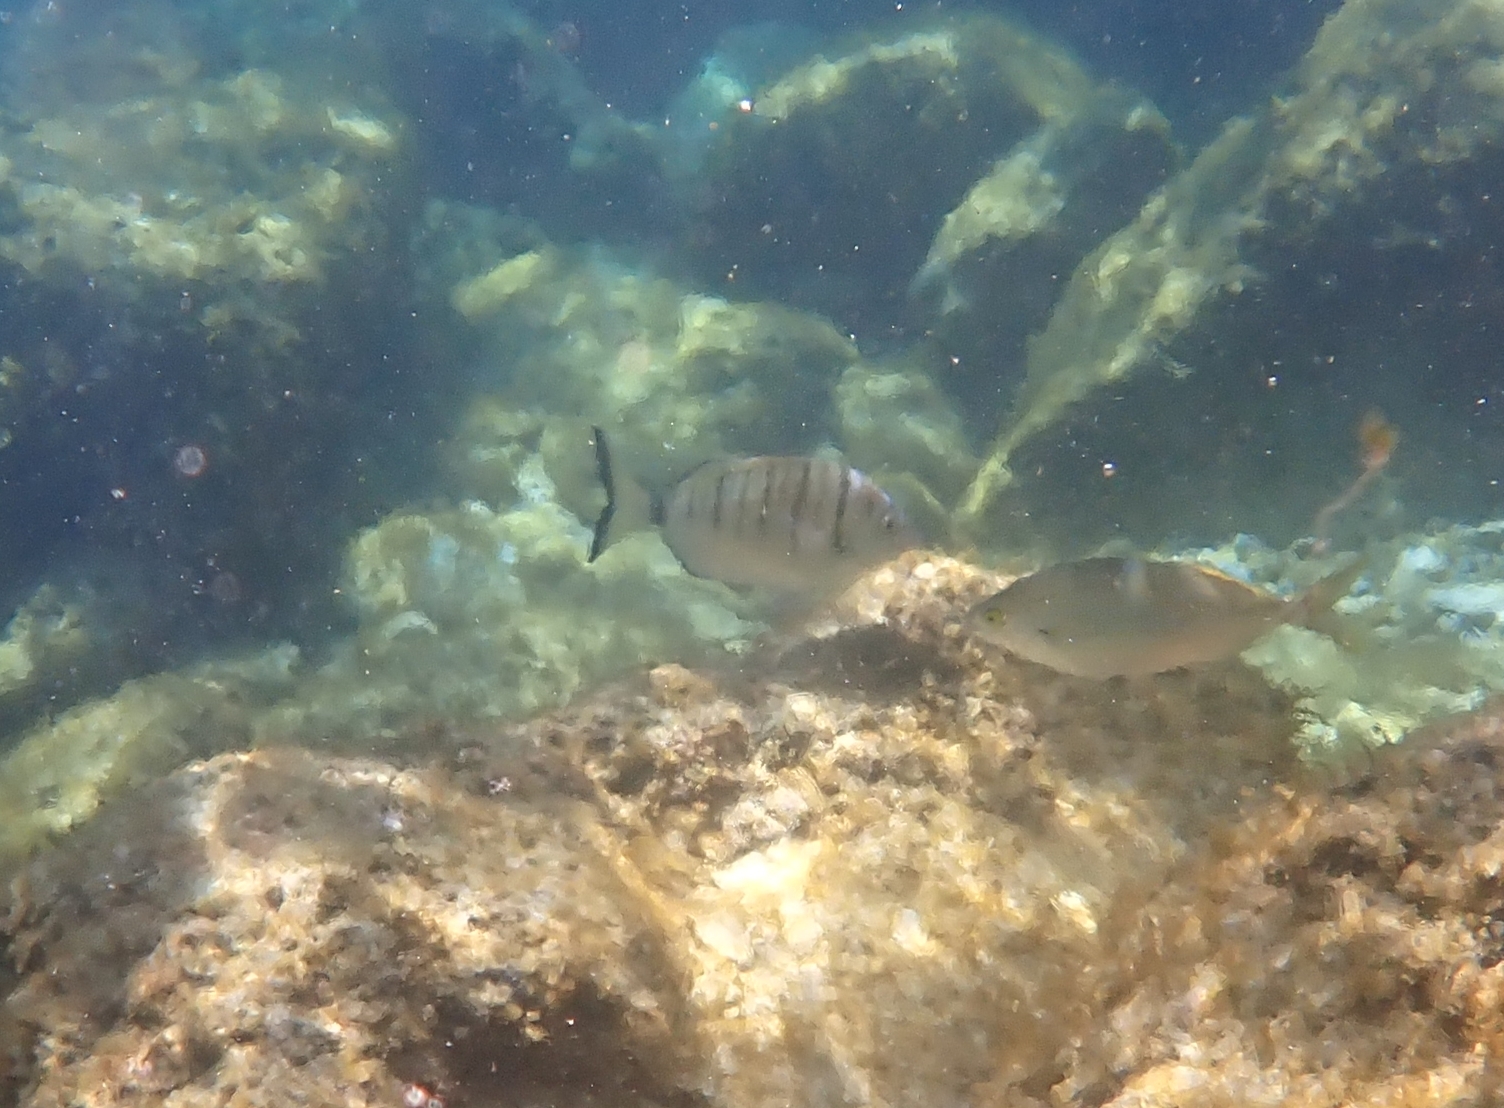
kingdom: Animalia
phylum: Chordata
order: Perciformes
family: Sparidae
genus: Diplodus
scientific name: Diplodus puntazzo
